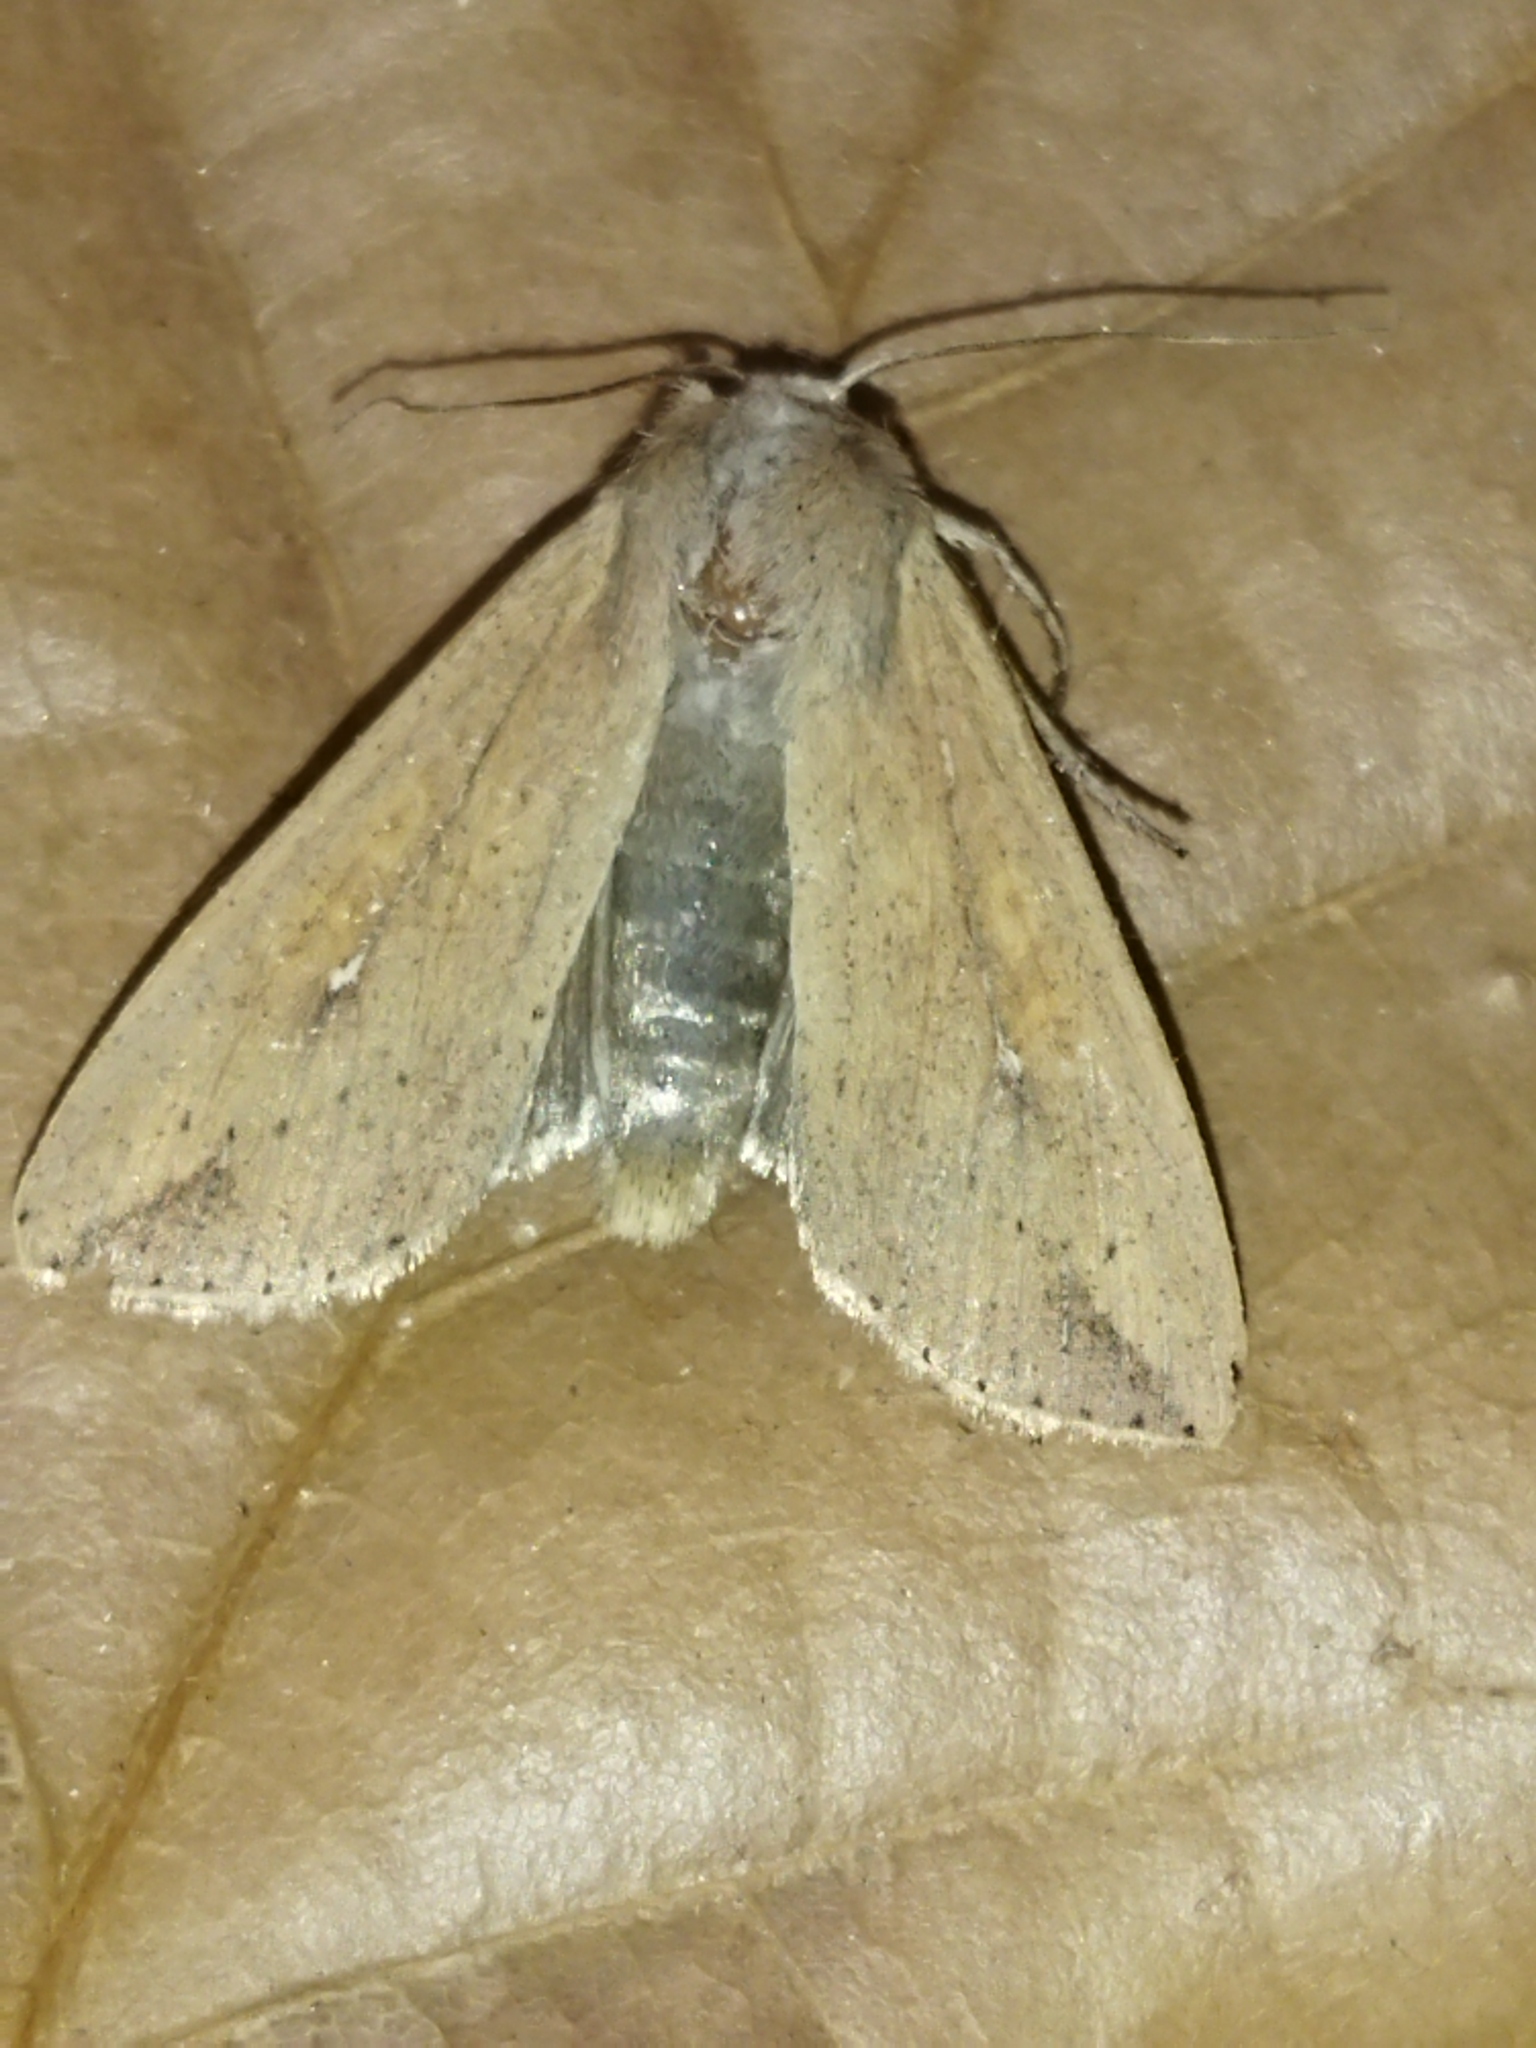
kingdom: Animalia
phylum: Arthropoda
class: Insecta
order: Lepidoptera
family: Noctuidae
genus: Mythimna
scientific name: Mythimna unipuncta
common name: White-speck
